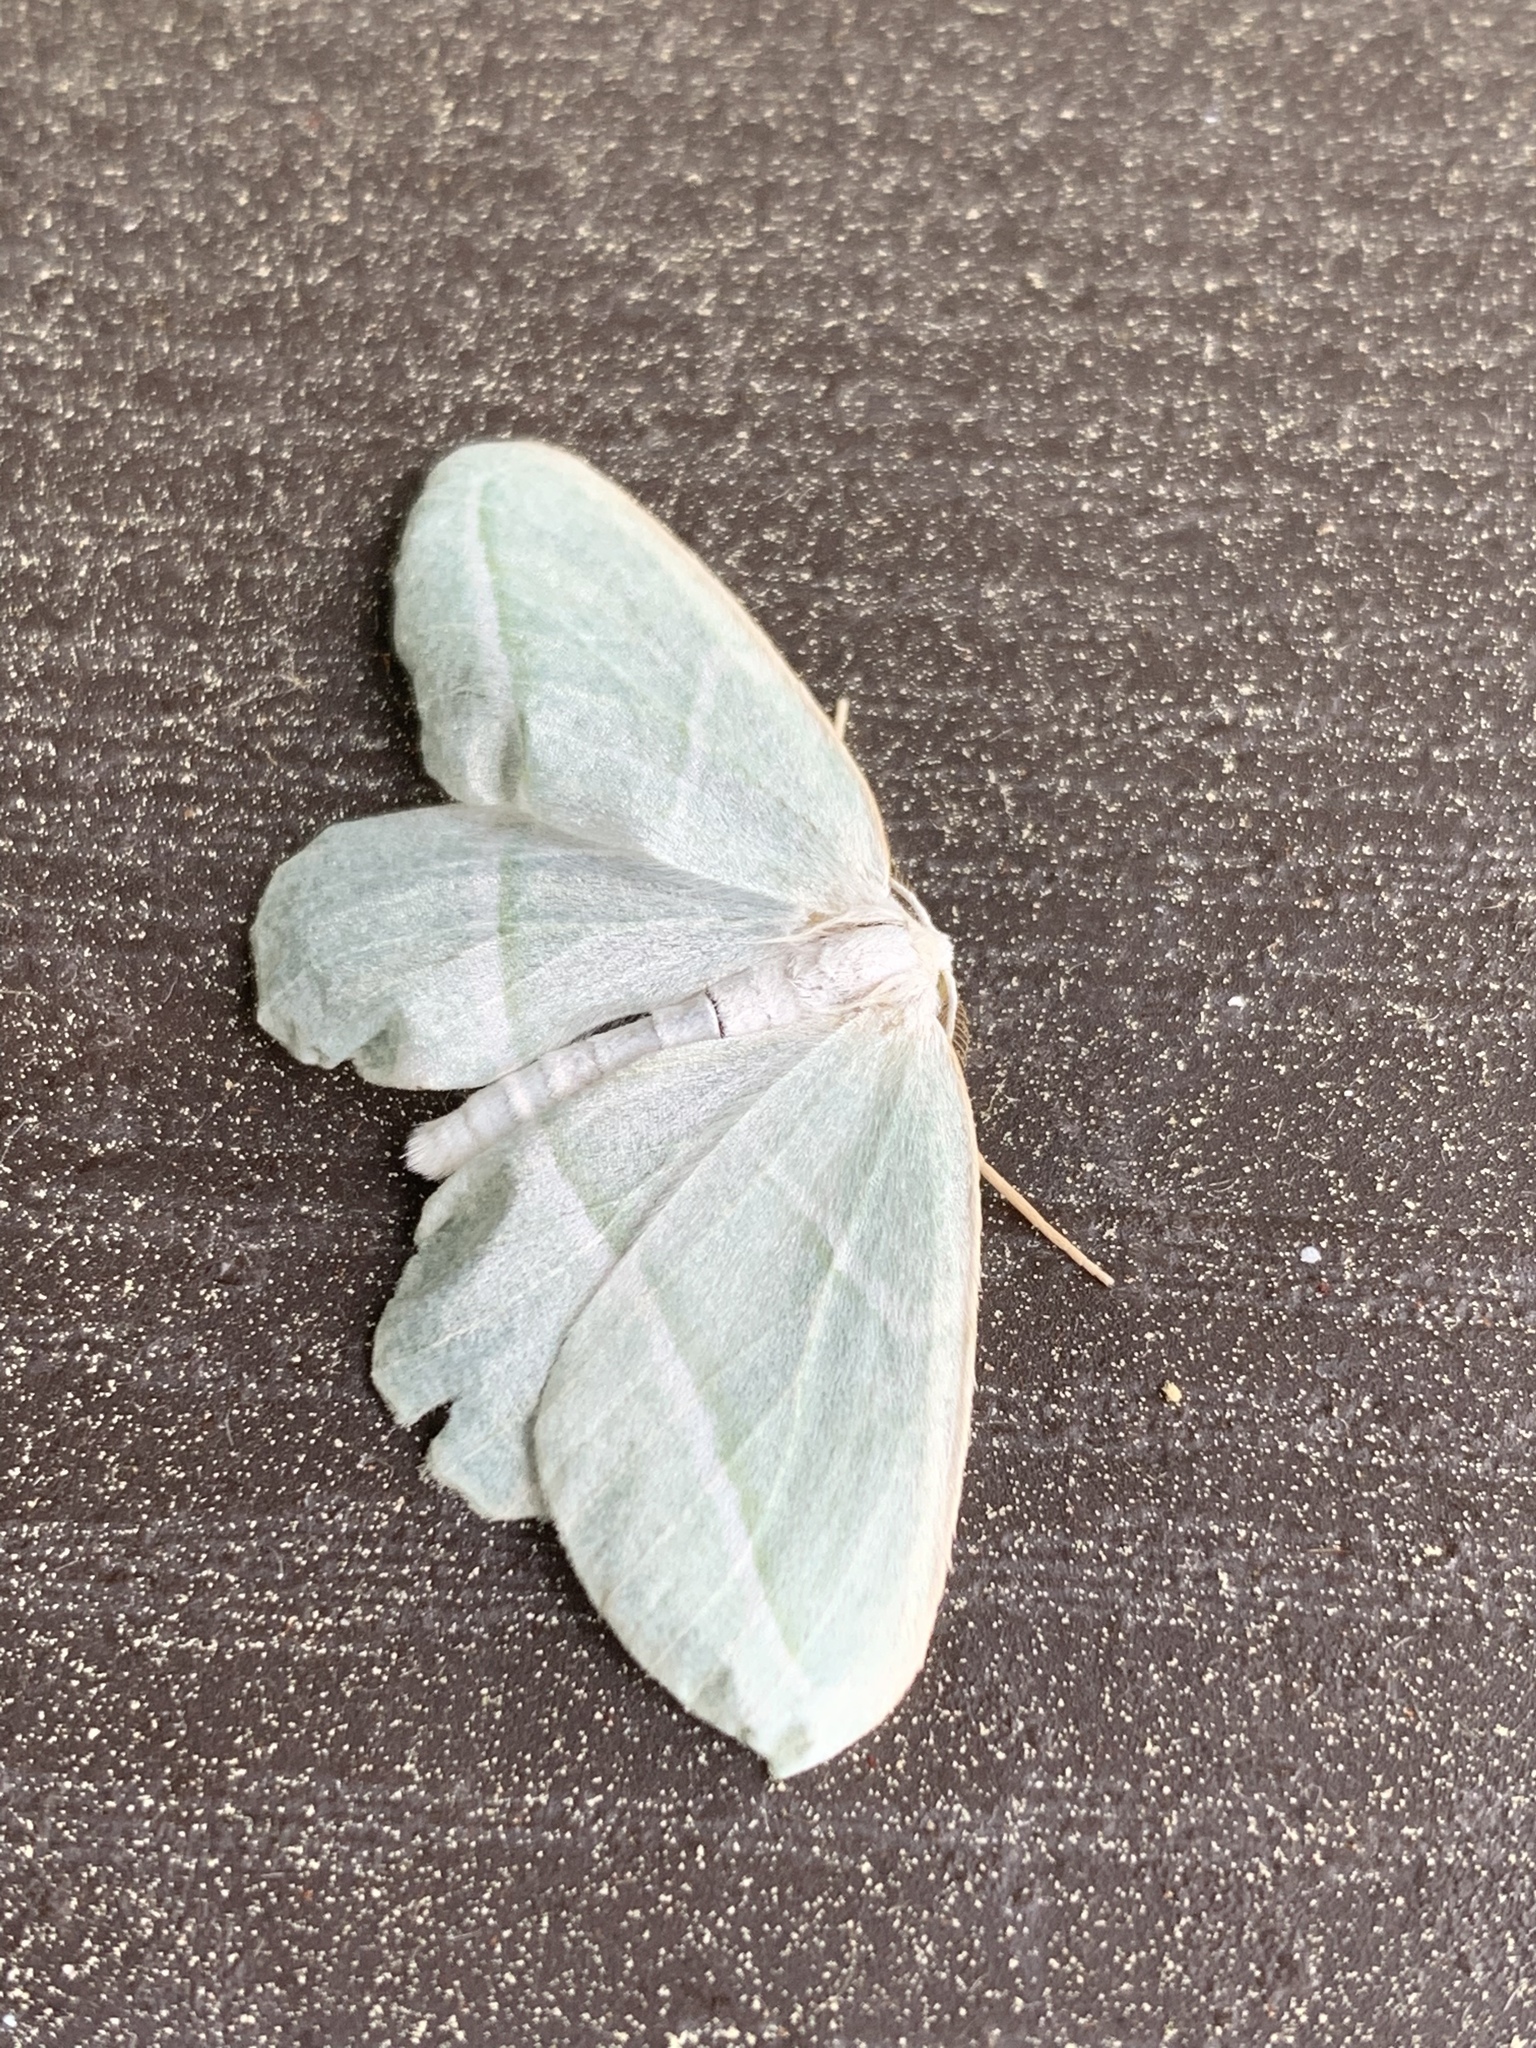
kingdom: Animalia
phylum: Arthropoda
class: Insecta
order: Lepidoptera
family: Geometridae
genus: Campaea
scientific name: Campaea perlata
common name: Fringed looper
